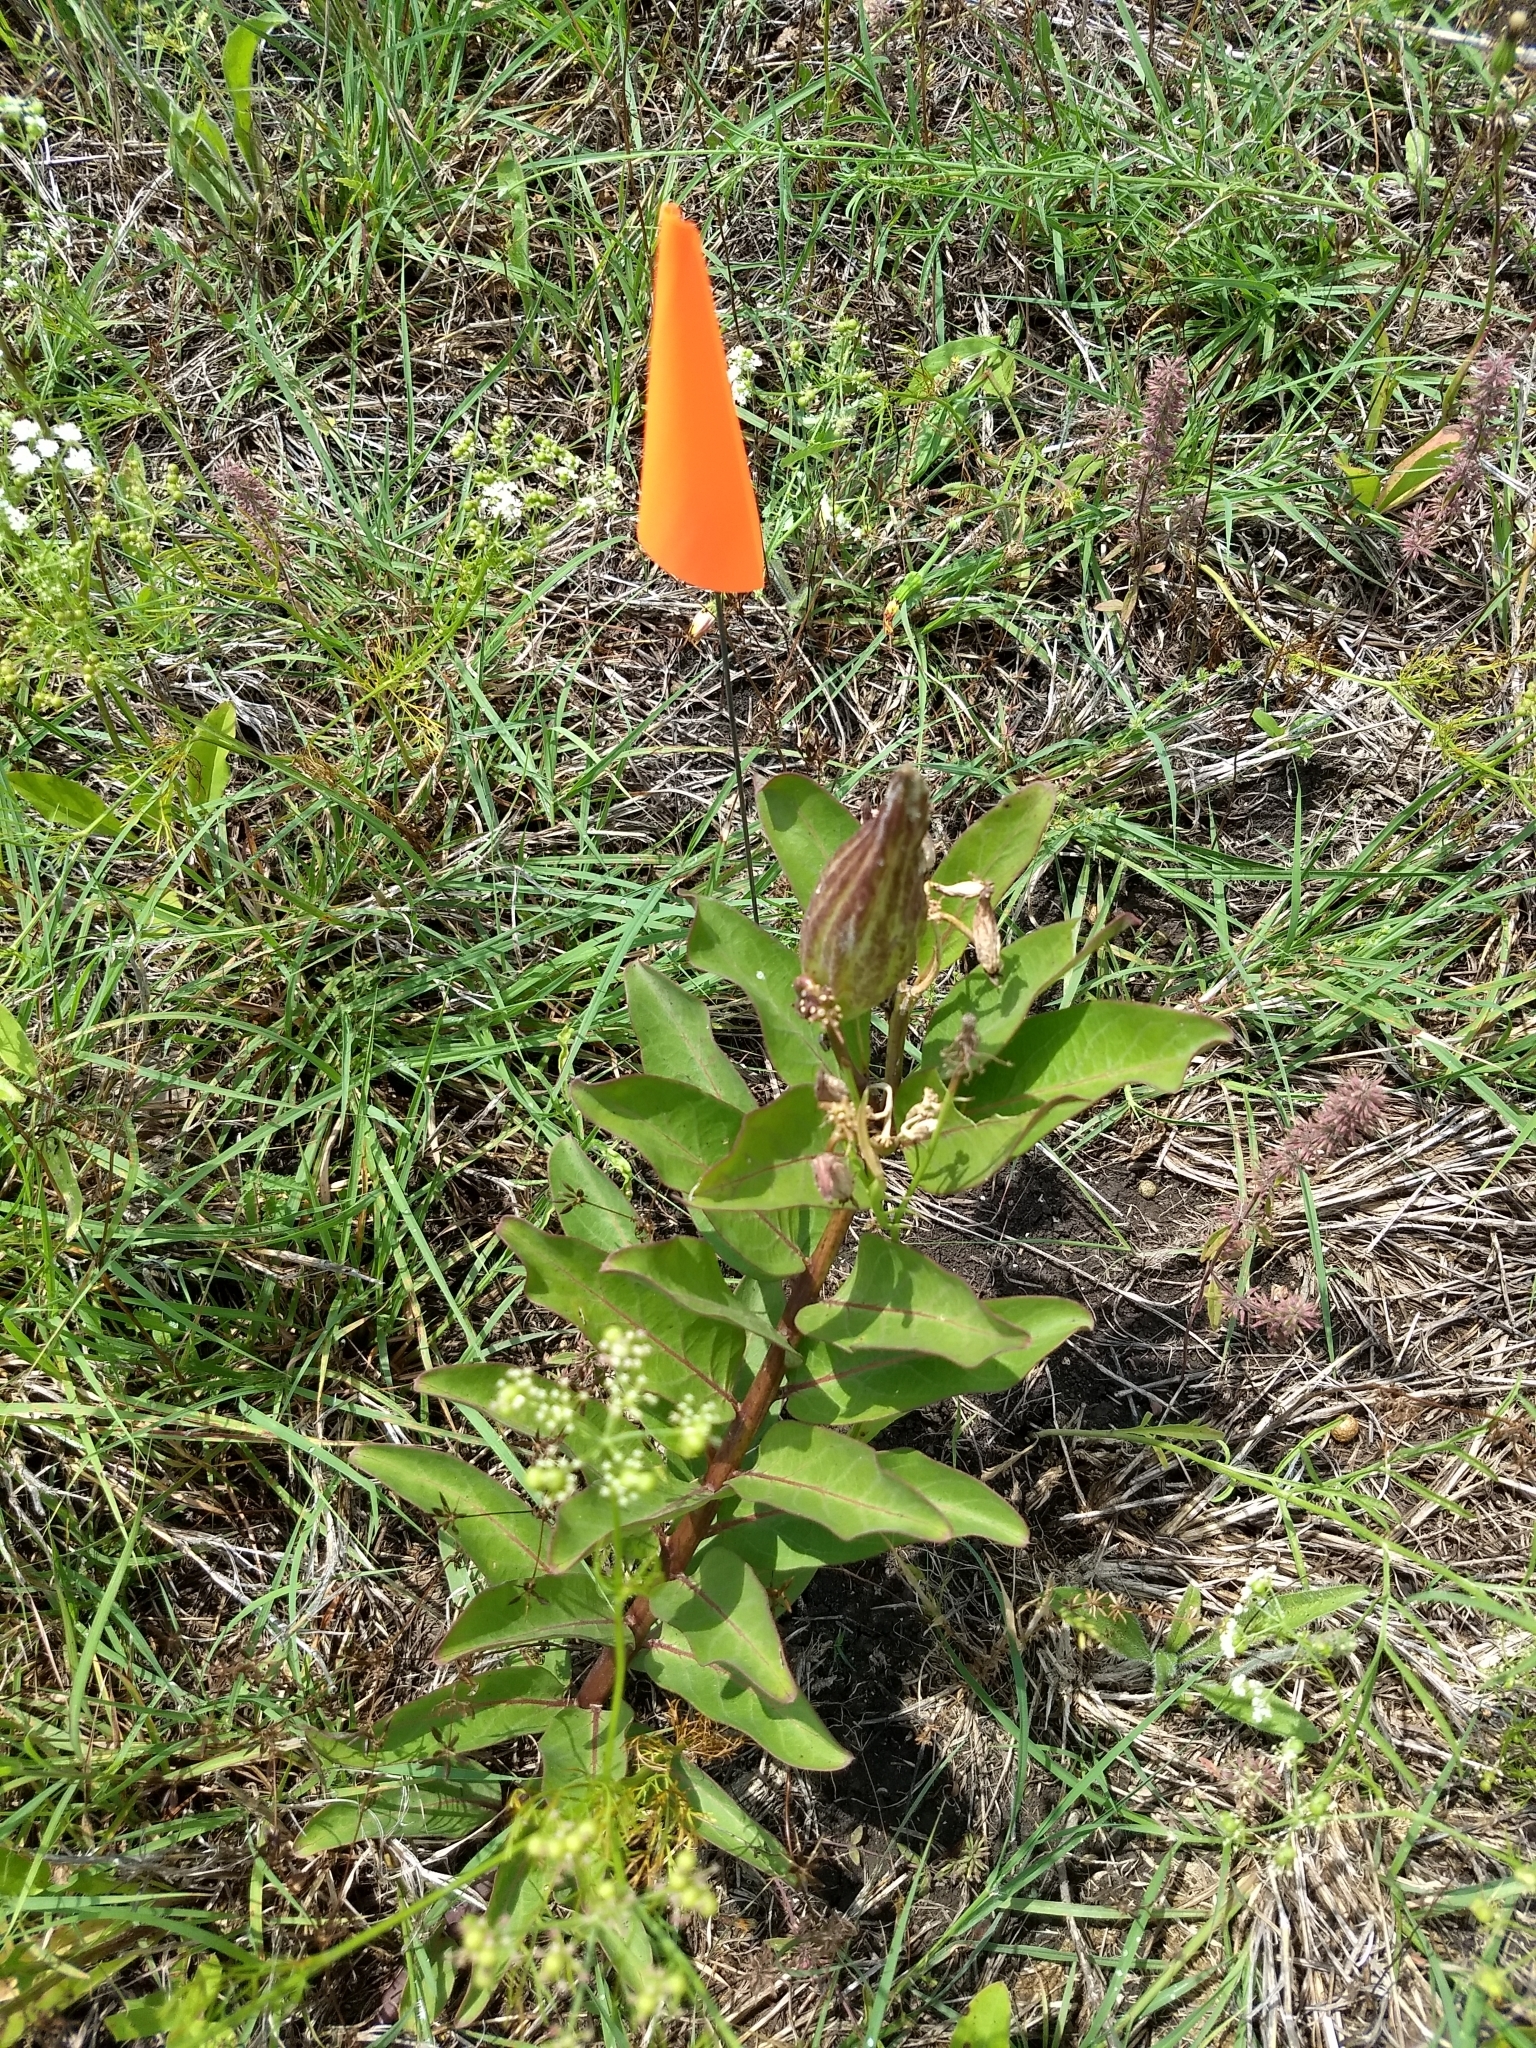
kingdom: Plantae
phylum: Tracheophyta
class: Magnoliopsida
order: Gentianales
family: Apocynaceae
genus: Asclepias
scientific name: Asclepias viridis
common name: Antelope-horns
